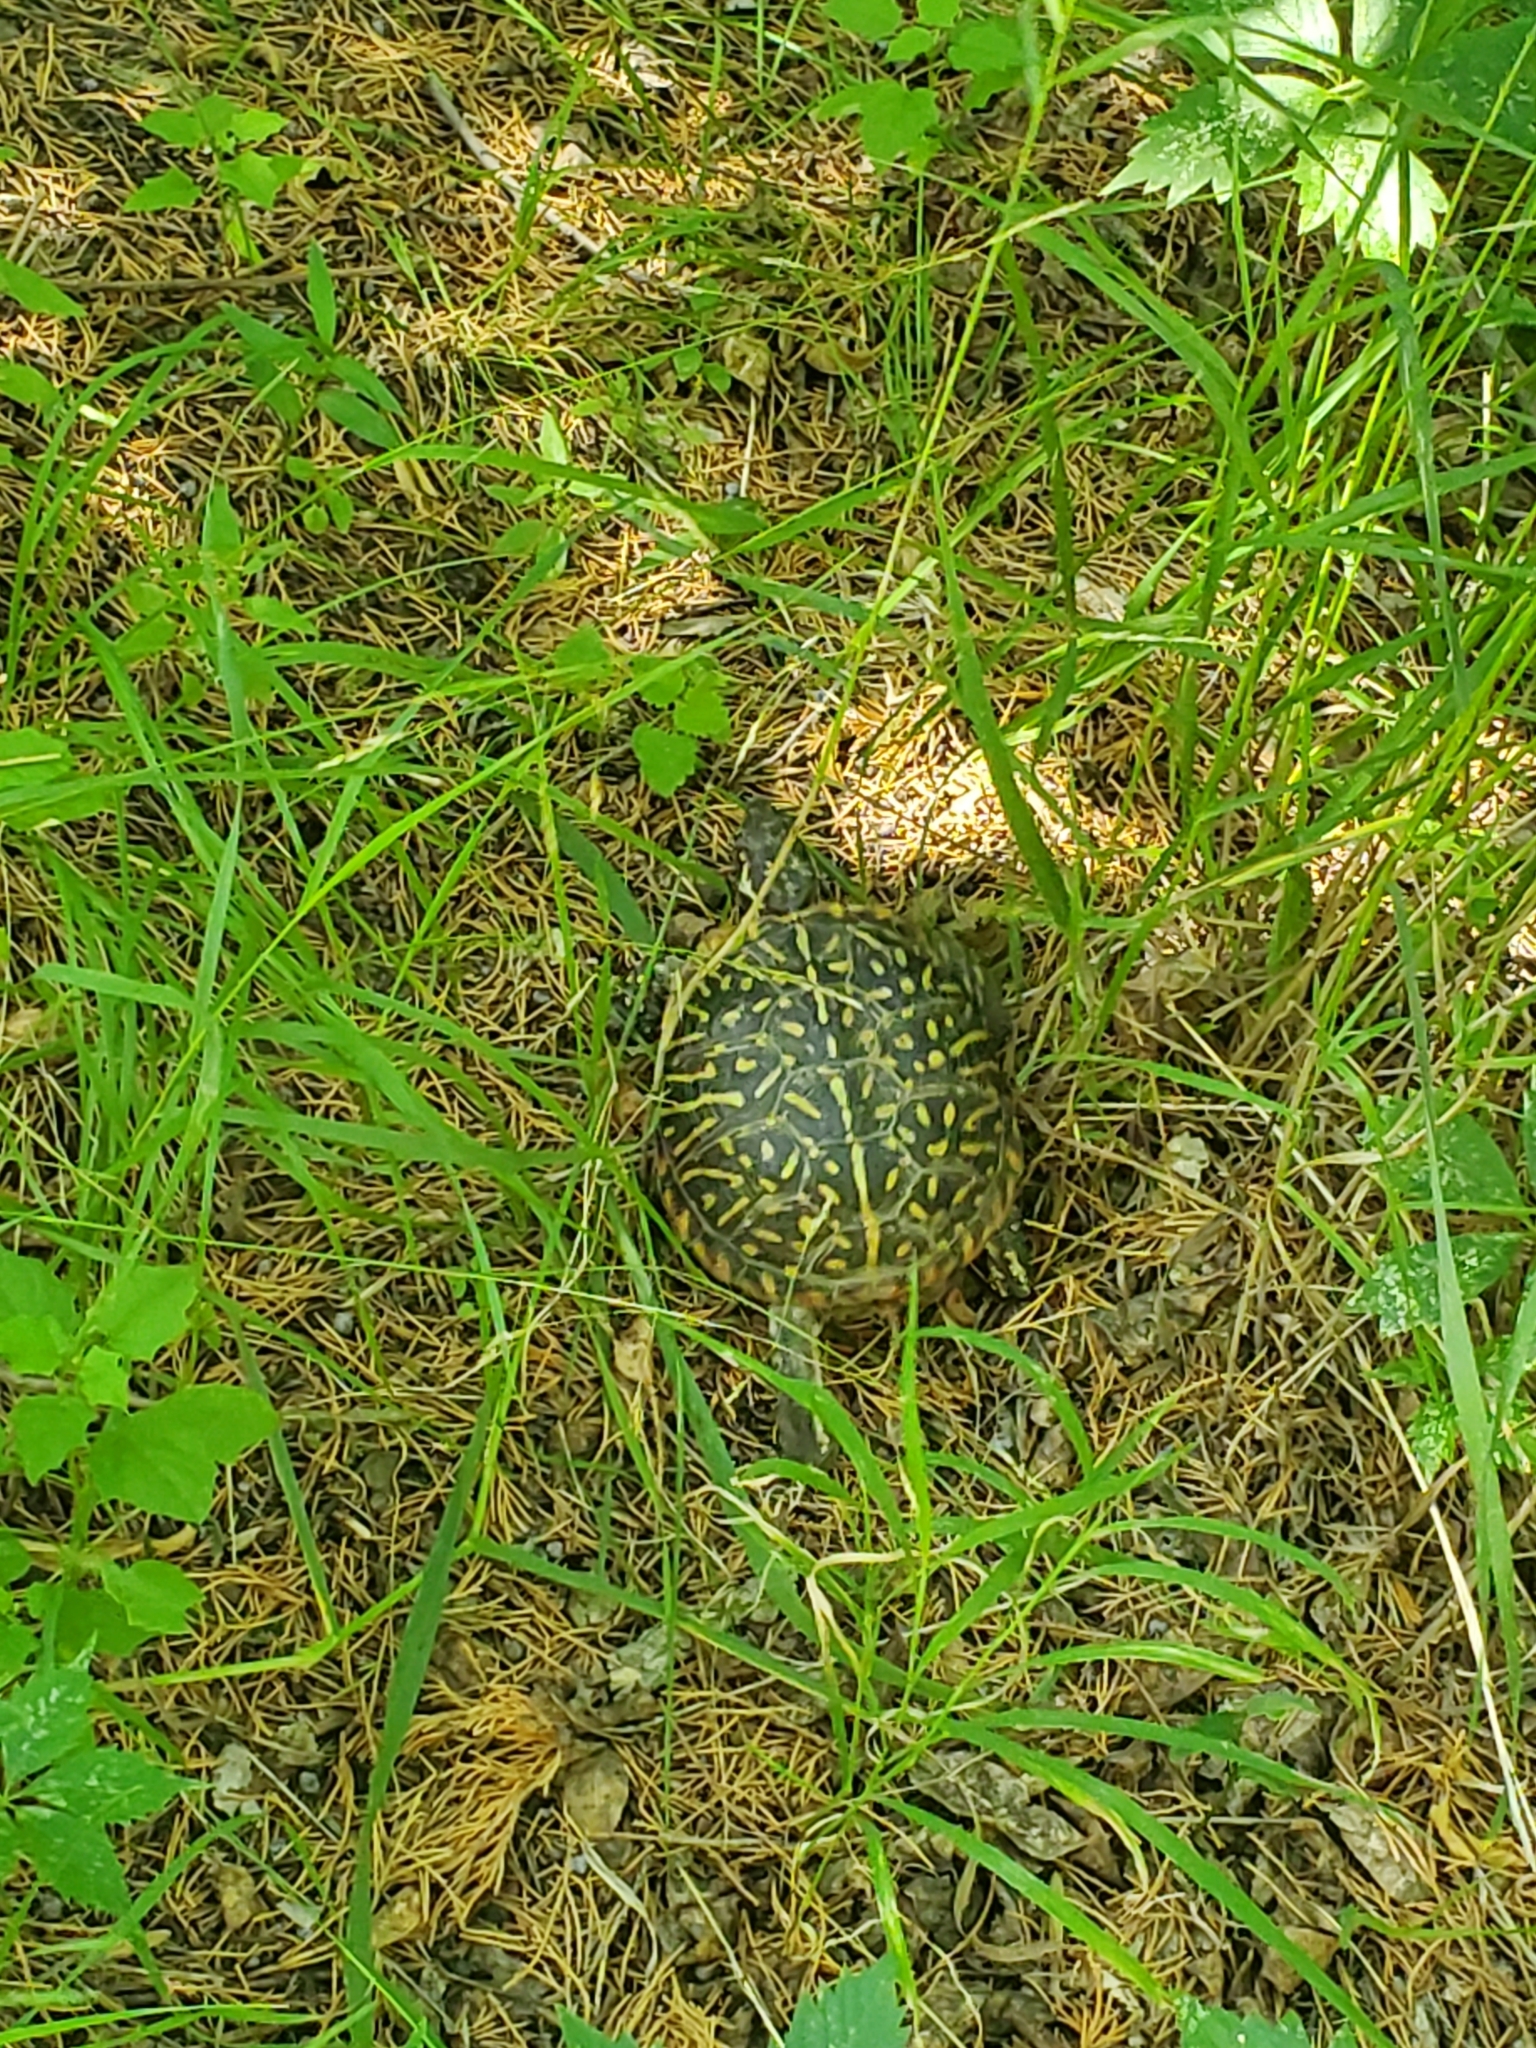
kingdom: Animalia
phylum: Chordata
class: Testudines
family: Emydidae
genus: Terrapene
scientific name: Terrapene ornata
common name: Western box turtle
